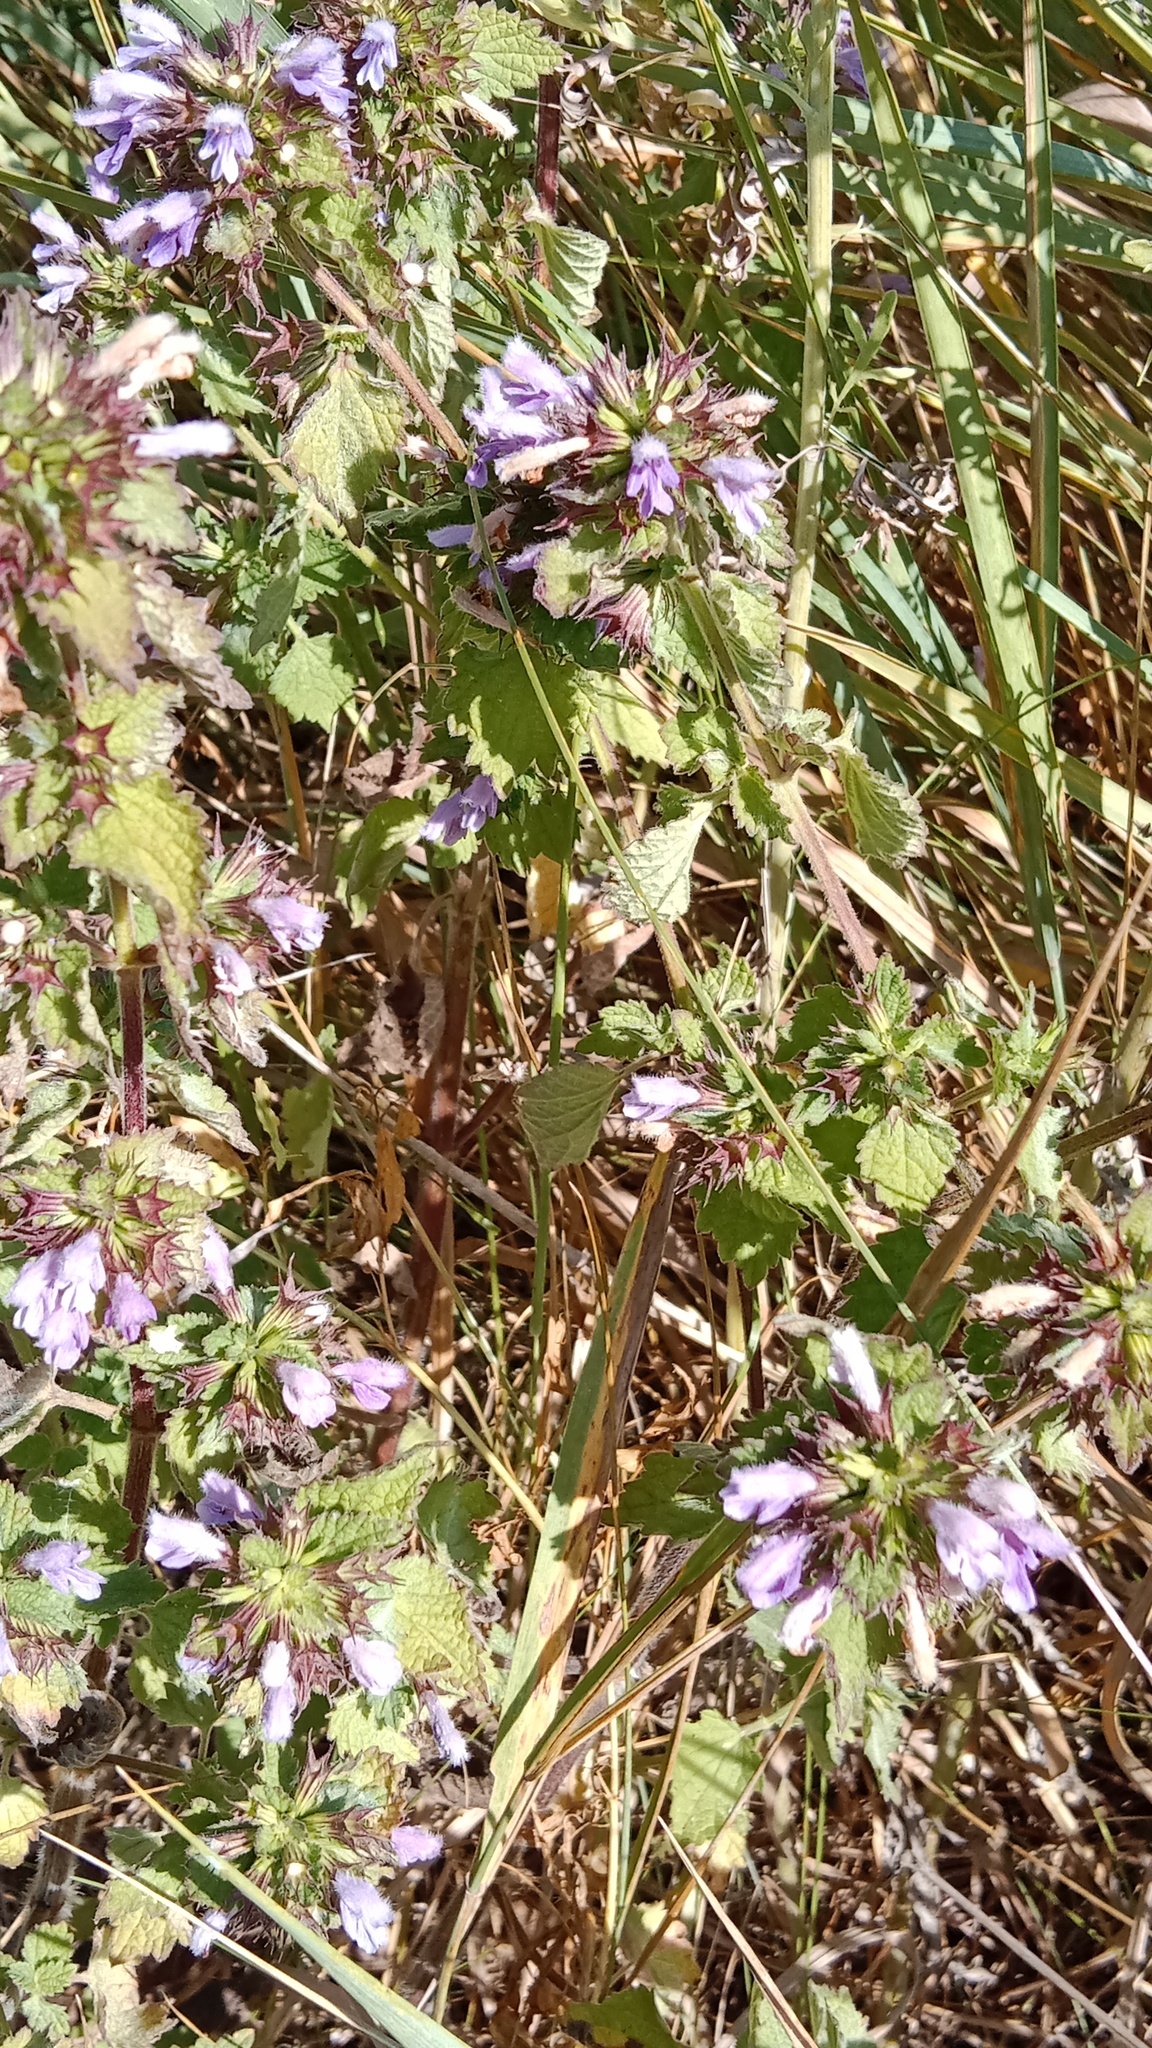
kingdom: Plantae
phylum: Tracheophyta
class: Magnoliopsida
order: Lamiales
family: Lamiaceae
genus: Ballota
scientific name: Ballota nigra
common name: Black horehound
